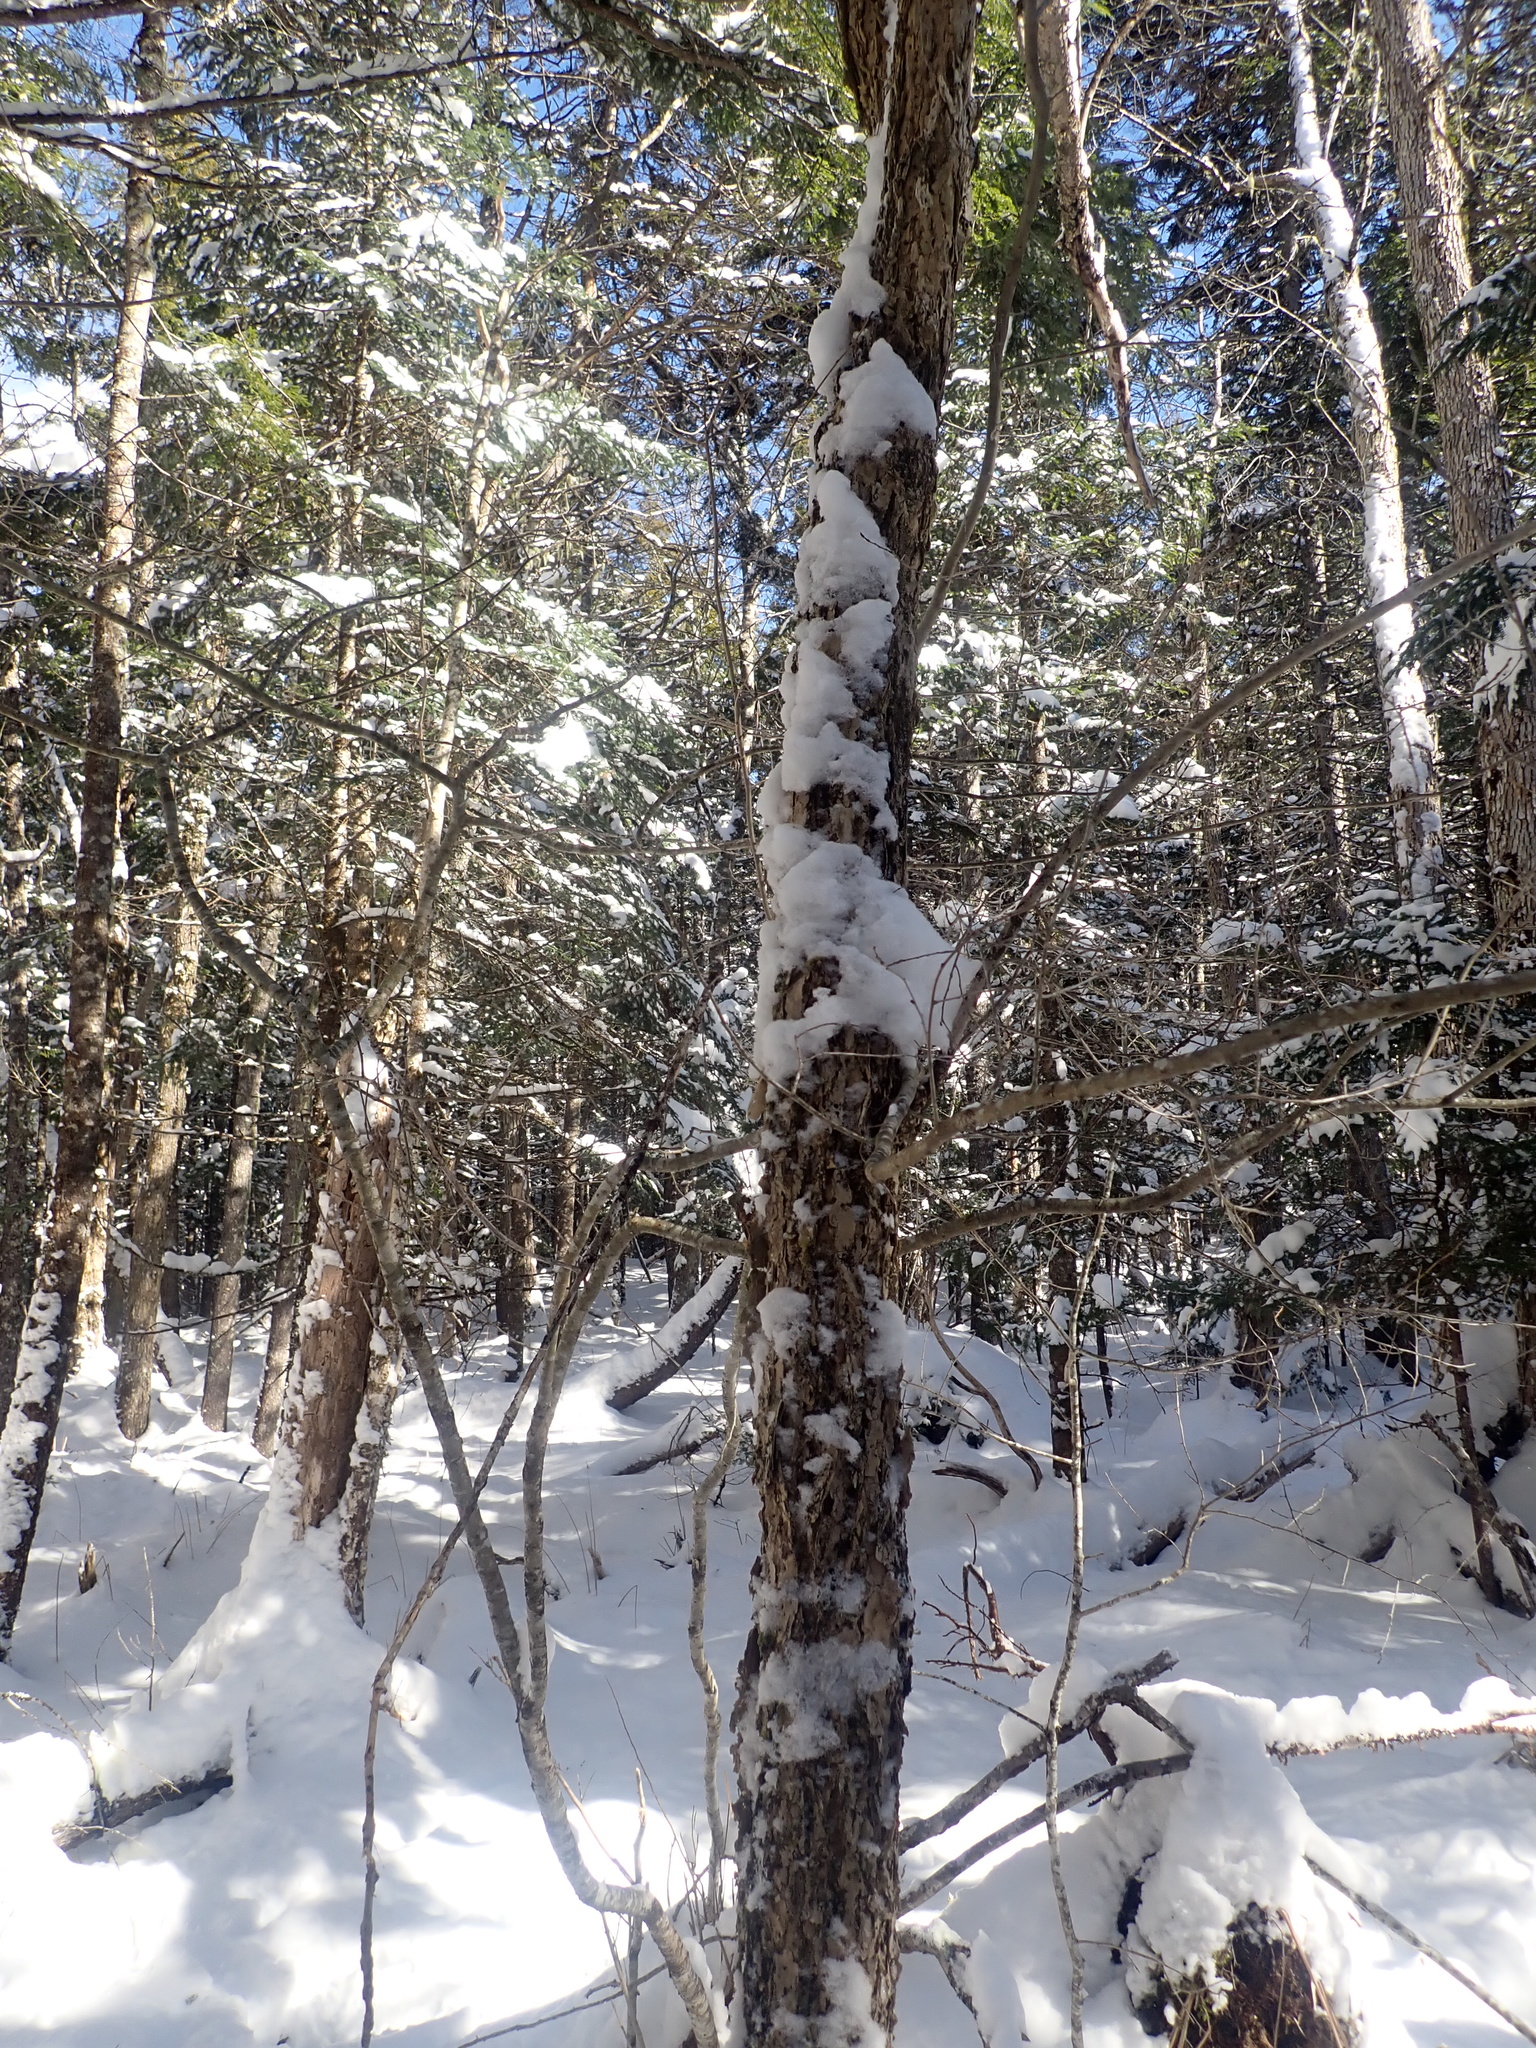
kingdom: Plantae
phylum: Tracheophyta
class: Magnoliopsida
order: Lamiales
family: Oleaceae
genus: Fraxinus
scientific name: Fraxinus nigra
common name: Black ash
